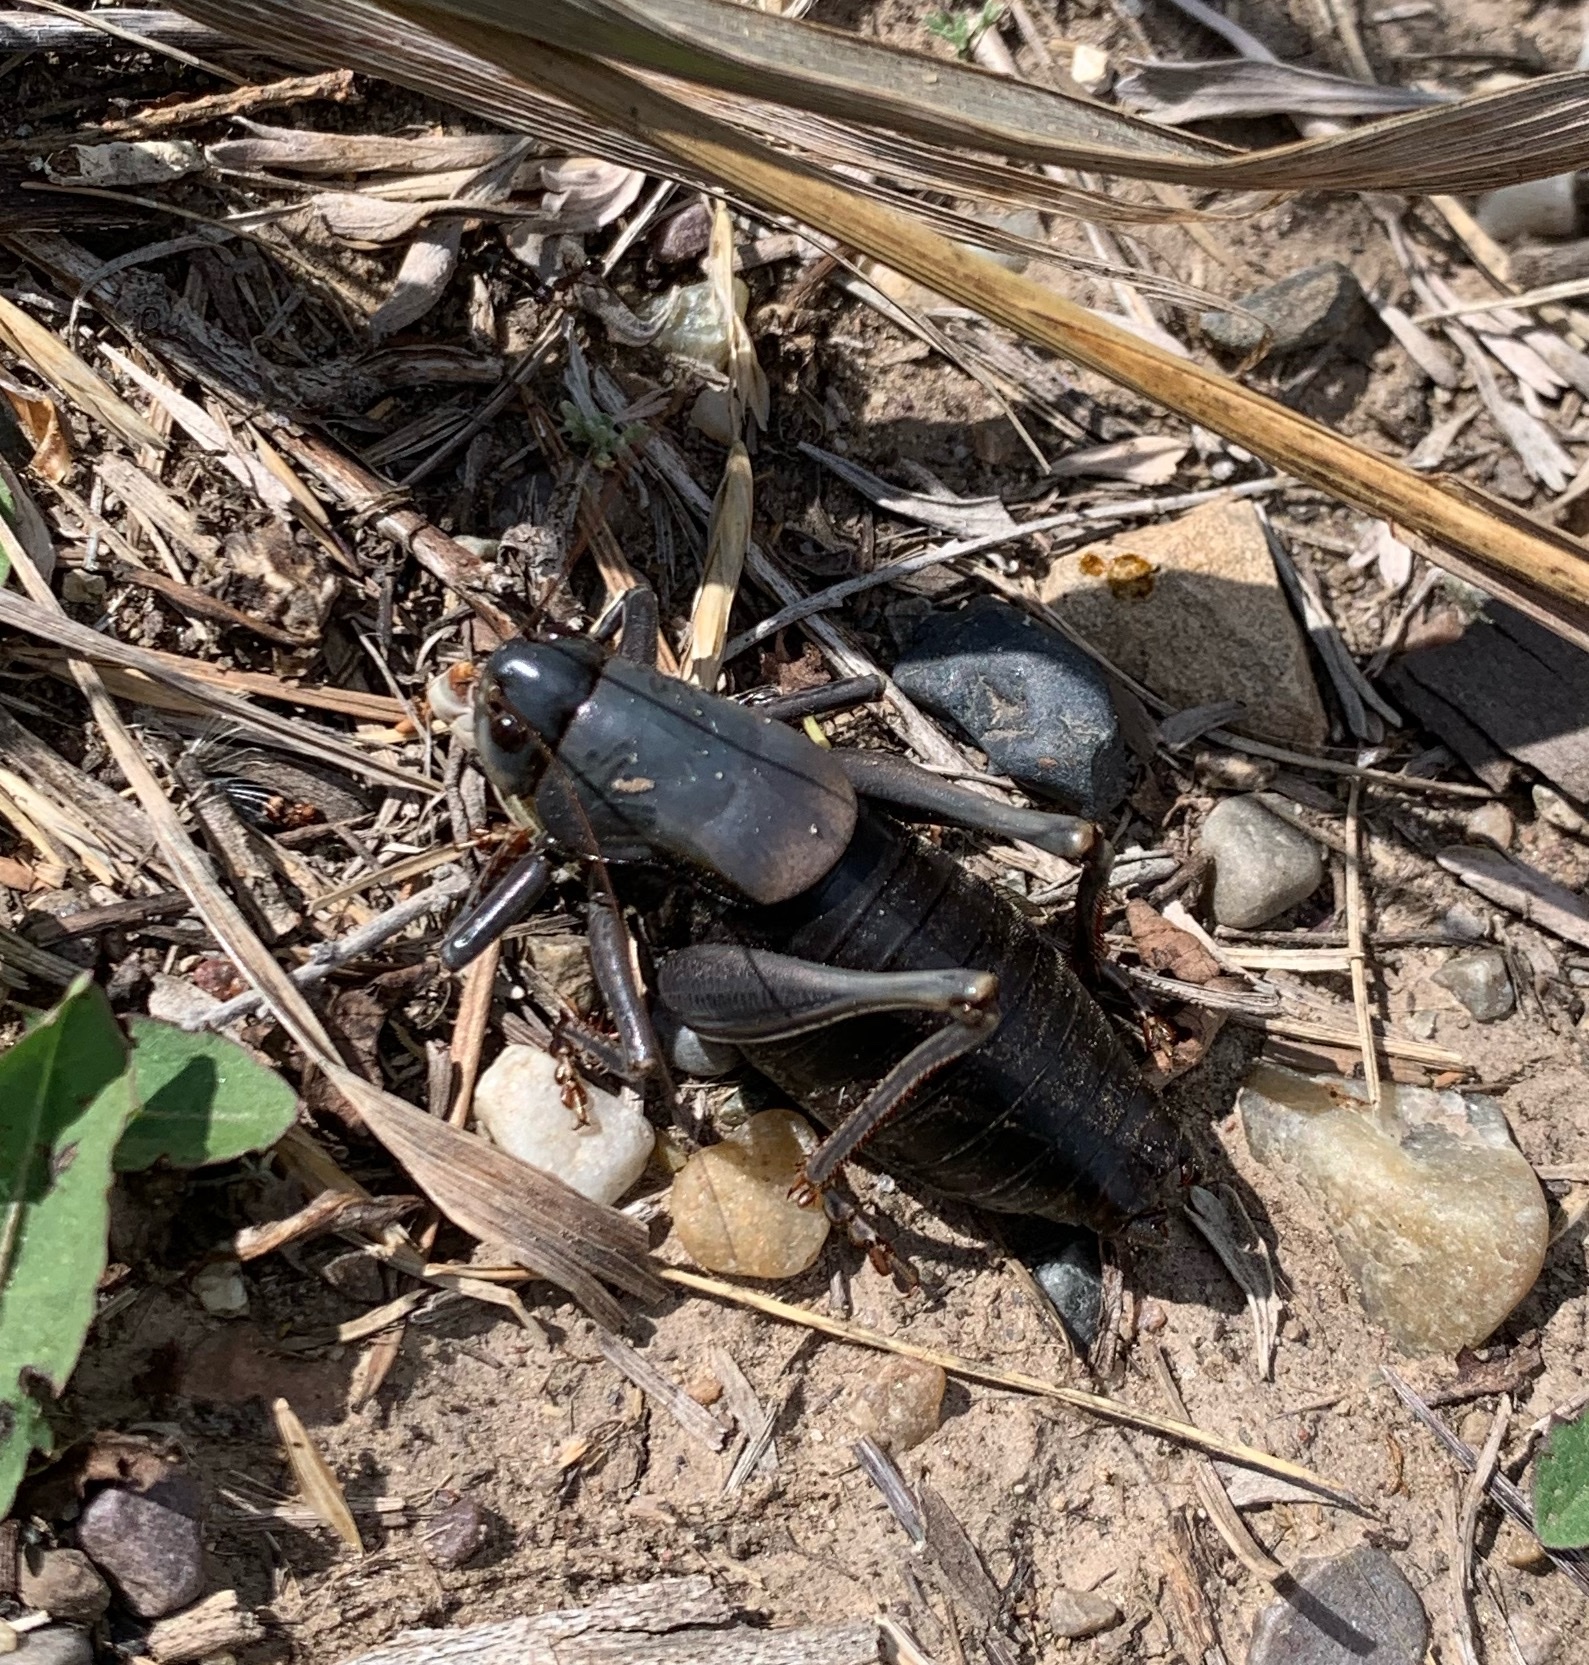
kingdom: Animalia
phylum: Arthropoda
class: Insecta
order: Orthoptera
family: Tettigoniidae
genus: Anabrus
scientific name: Anabrus simplex
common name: Mormon cricket
